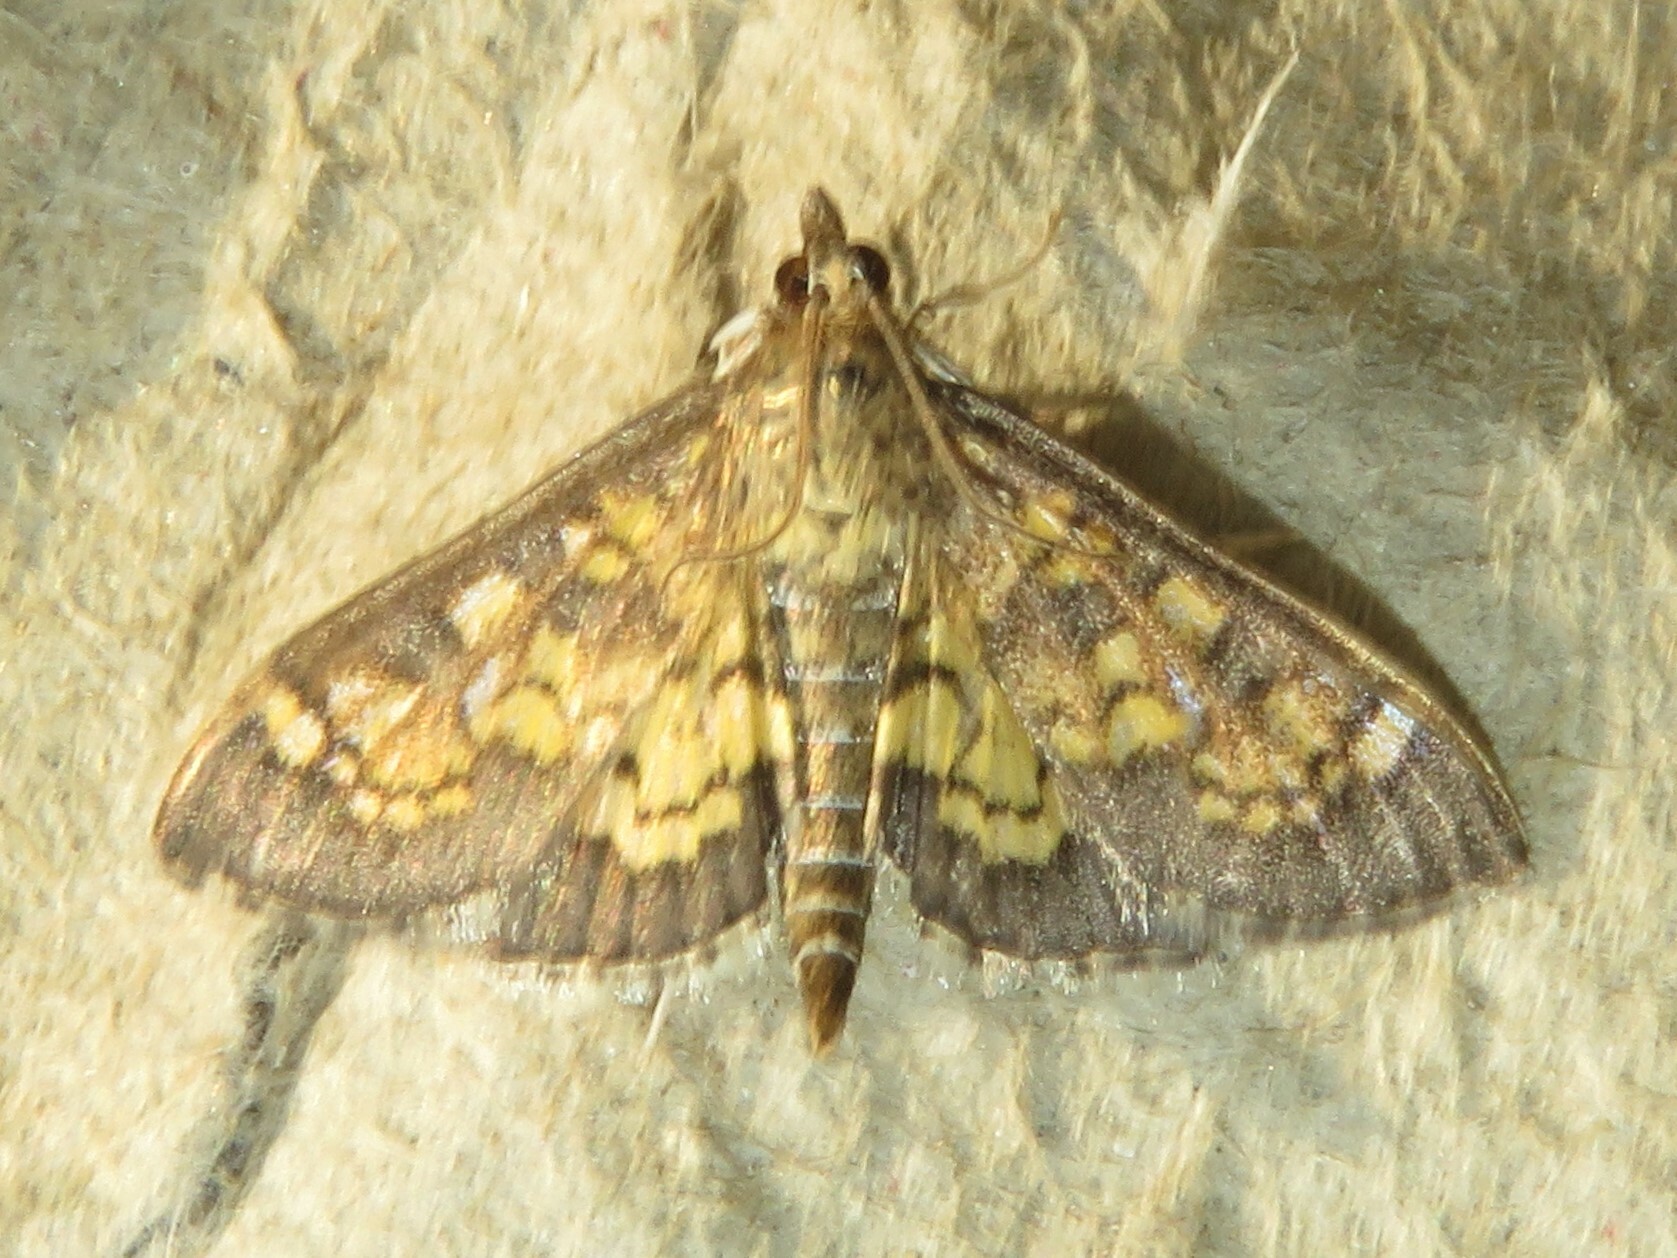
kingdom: Animalia
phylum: Arthropoda
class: Insecta
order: Lepidoptera
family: Crambidae
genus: Epipagis
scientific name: Epipagis adipaloides
